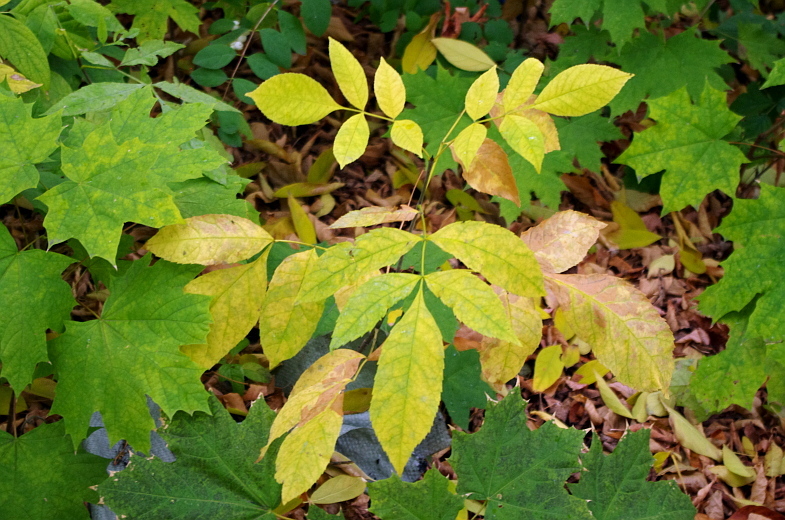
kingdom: Plantae
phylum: Tracheophyta
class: Magnoliopsida
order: Lamiales
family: Oleaceae
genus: Fraxinus
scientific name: Fraxinus pennsylvanica
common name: Green ash
